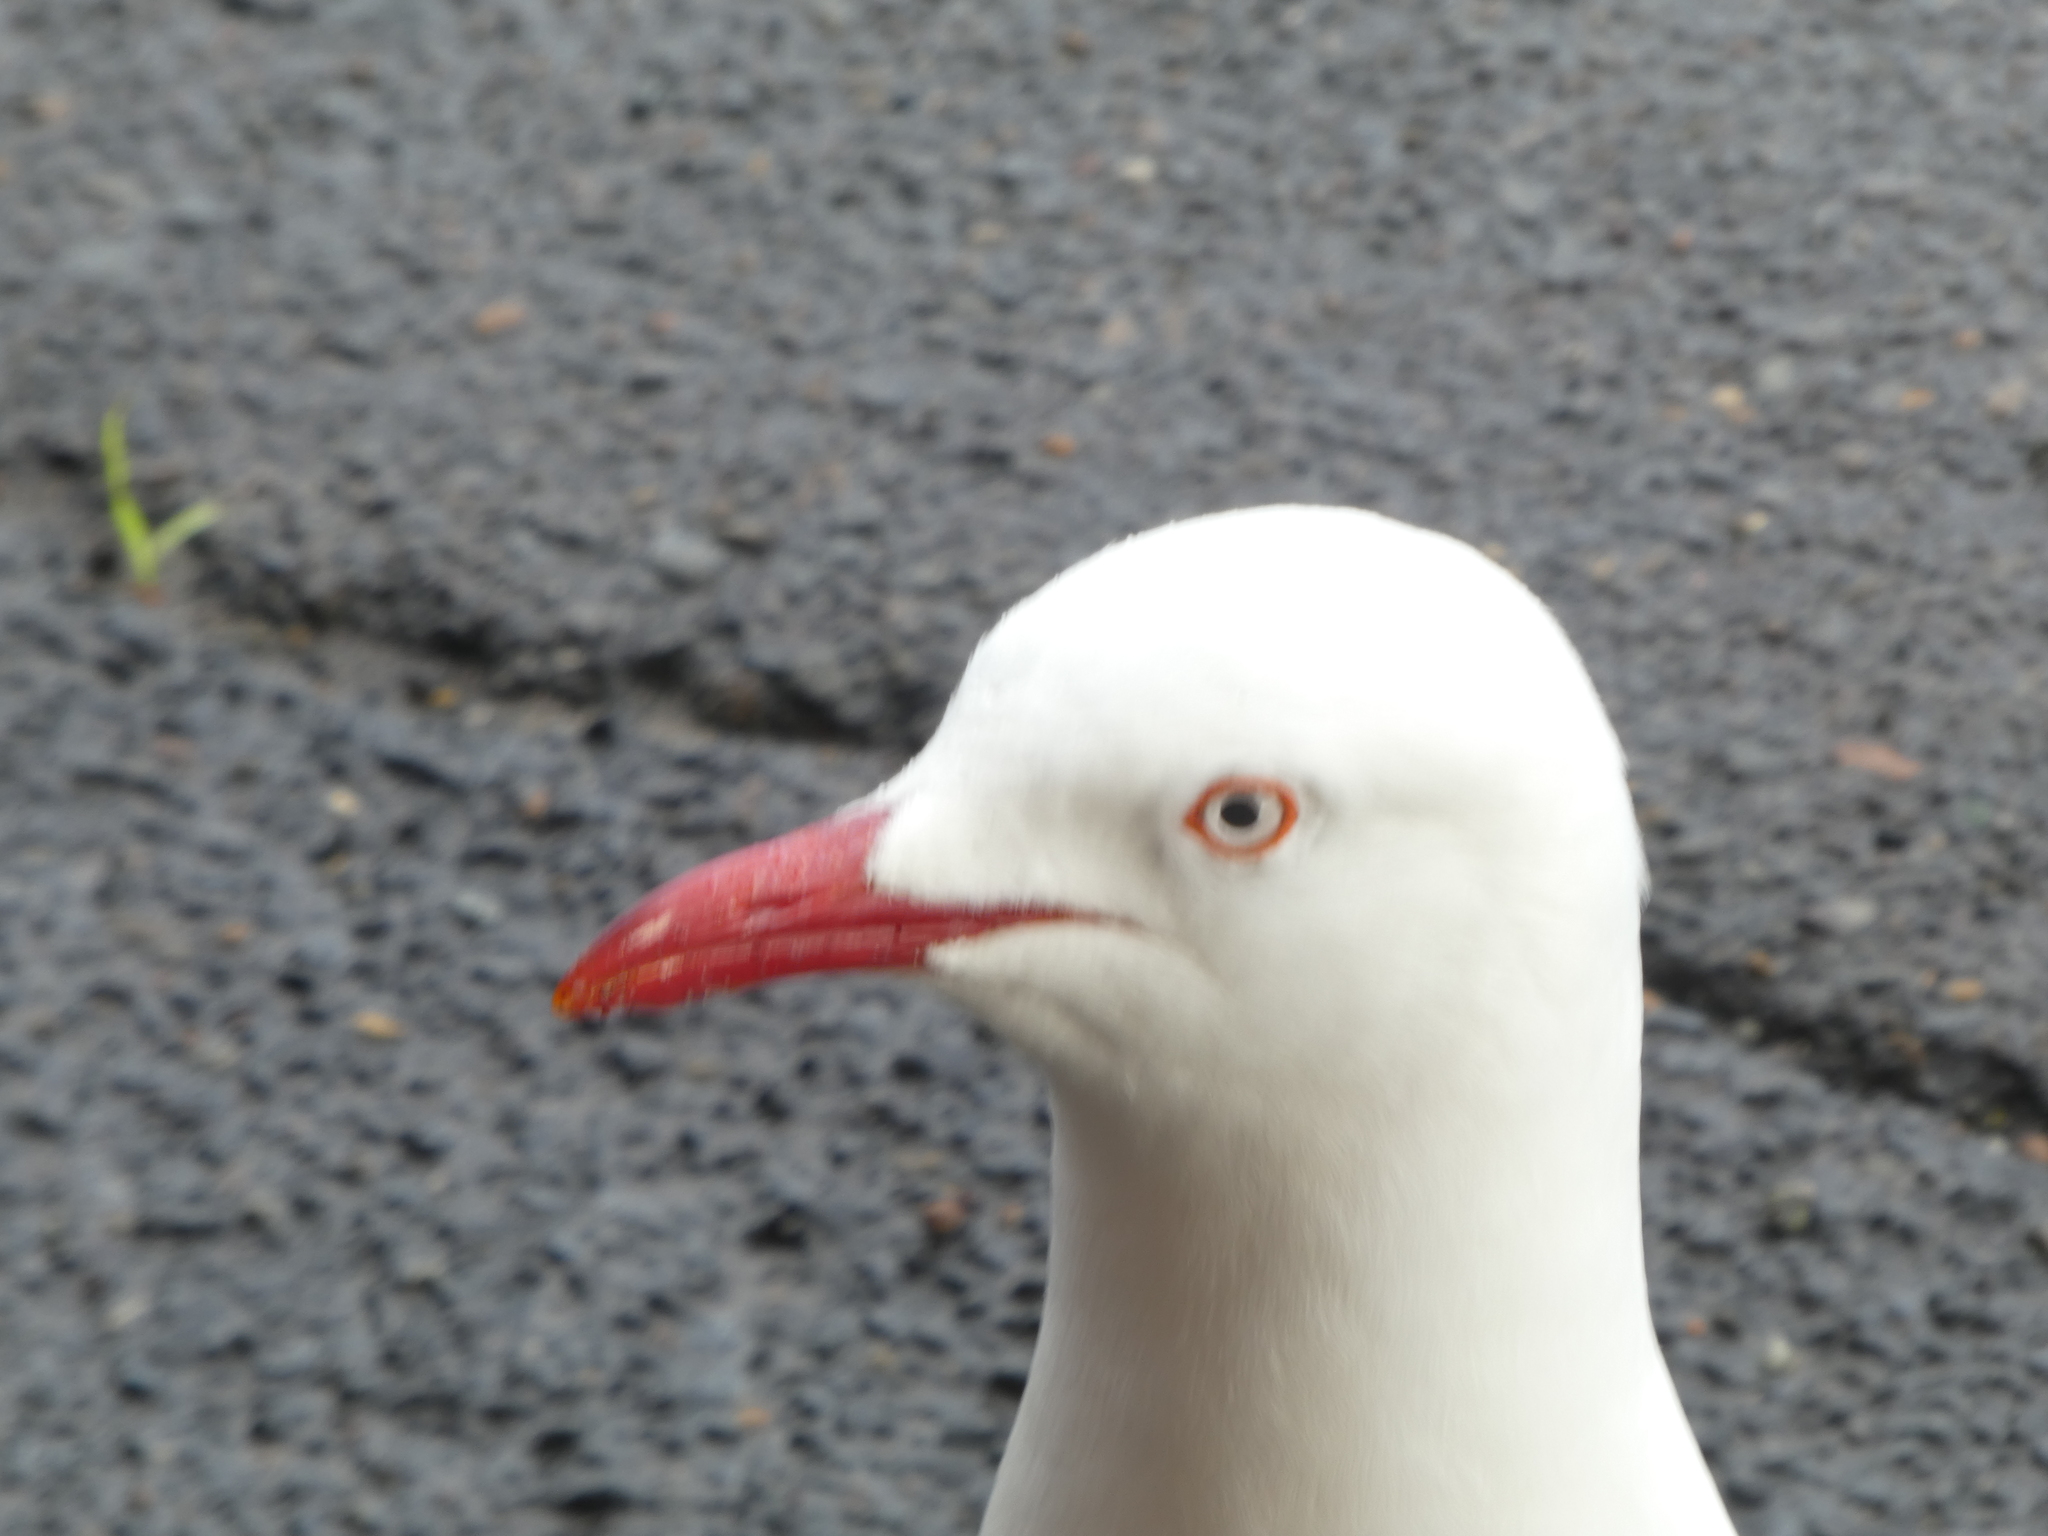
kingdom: Animalia
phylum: Chordata
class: Aves
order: Charadriiformes
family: Laridae
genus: Chroicocephalus
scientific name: Chroicocephalus novaehollandiae
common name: Silver gull
